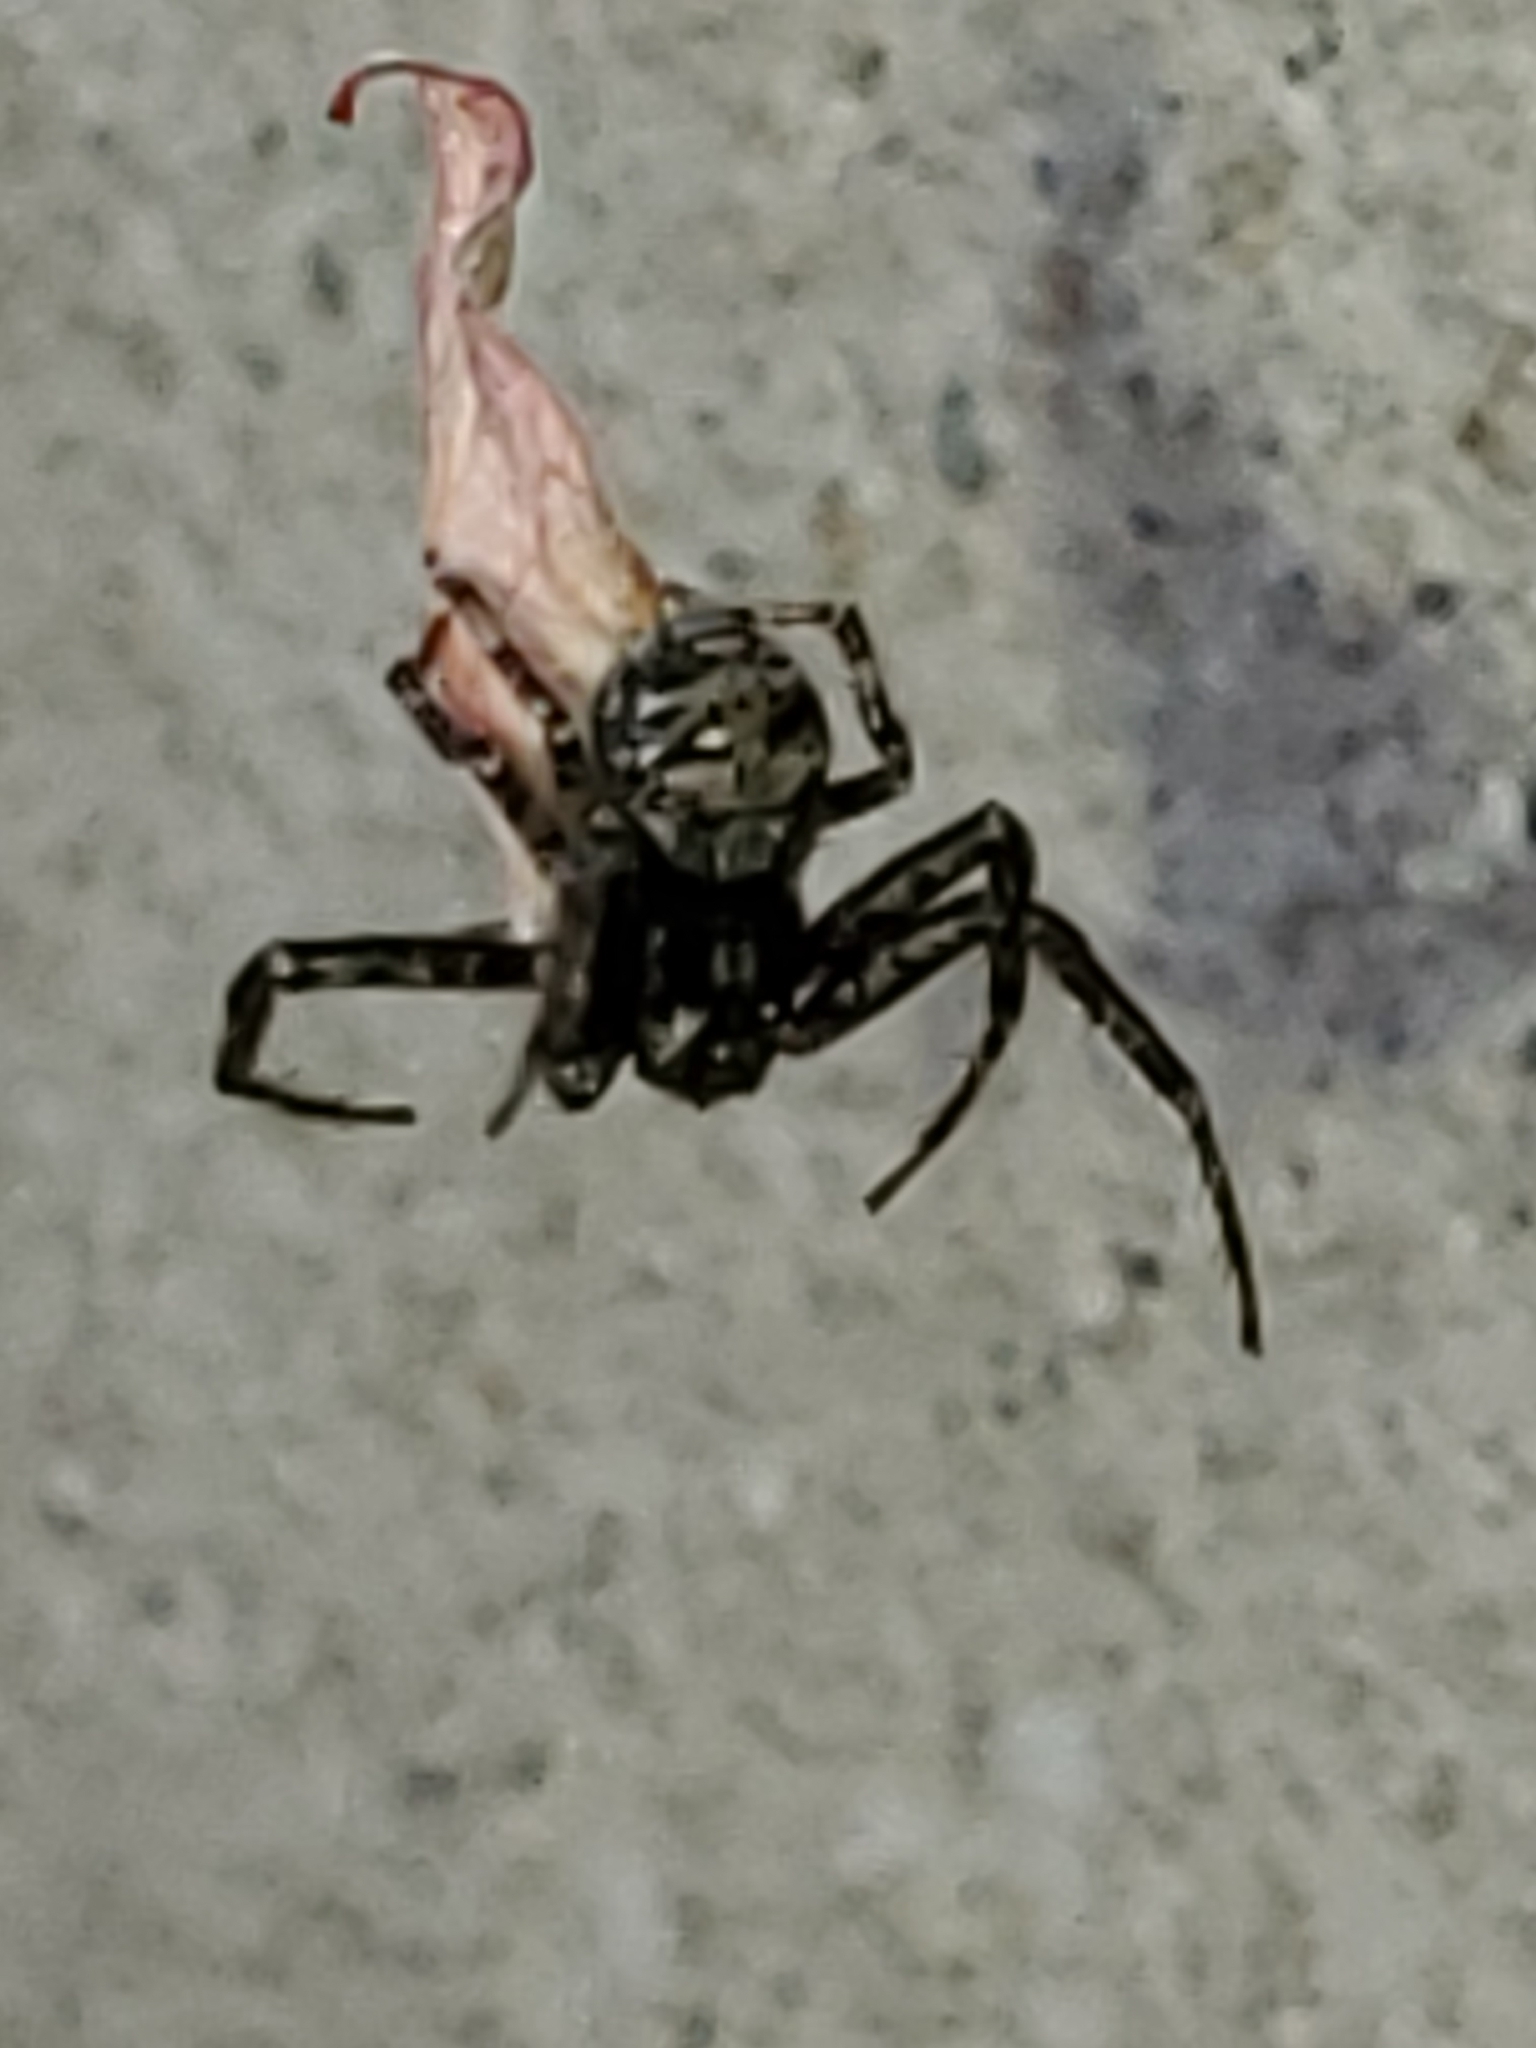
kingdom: Animalia
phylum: Arthropoda
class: Arachnida
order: Araneae
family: Thomisidae
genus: Bassaniana
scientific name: Bassaniana utahensis
